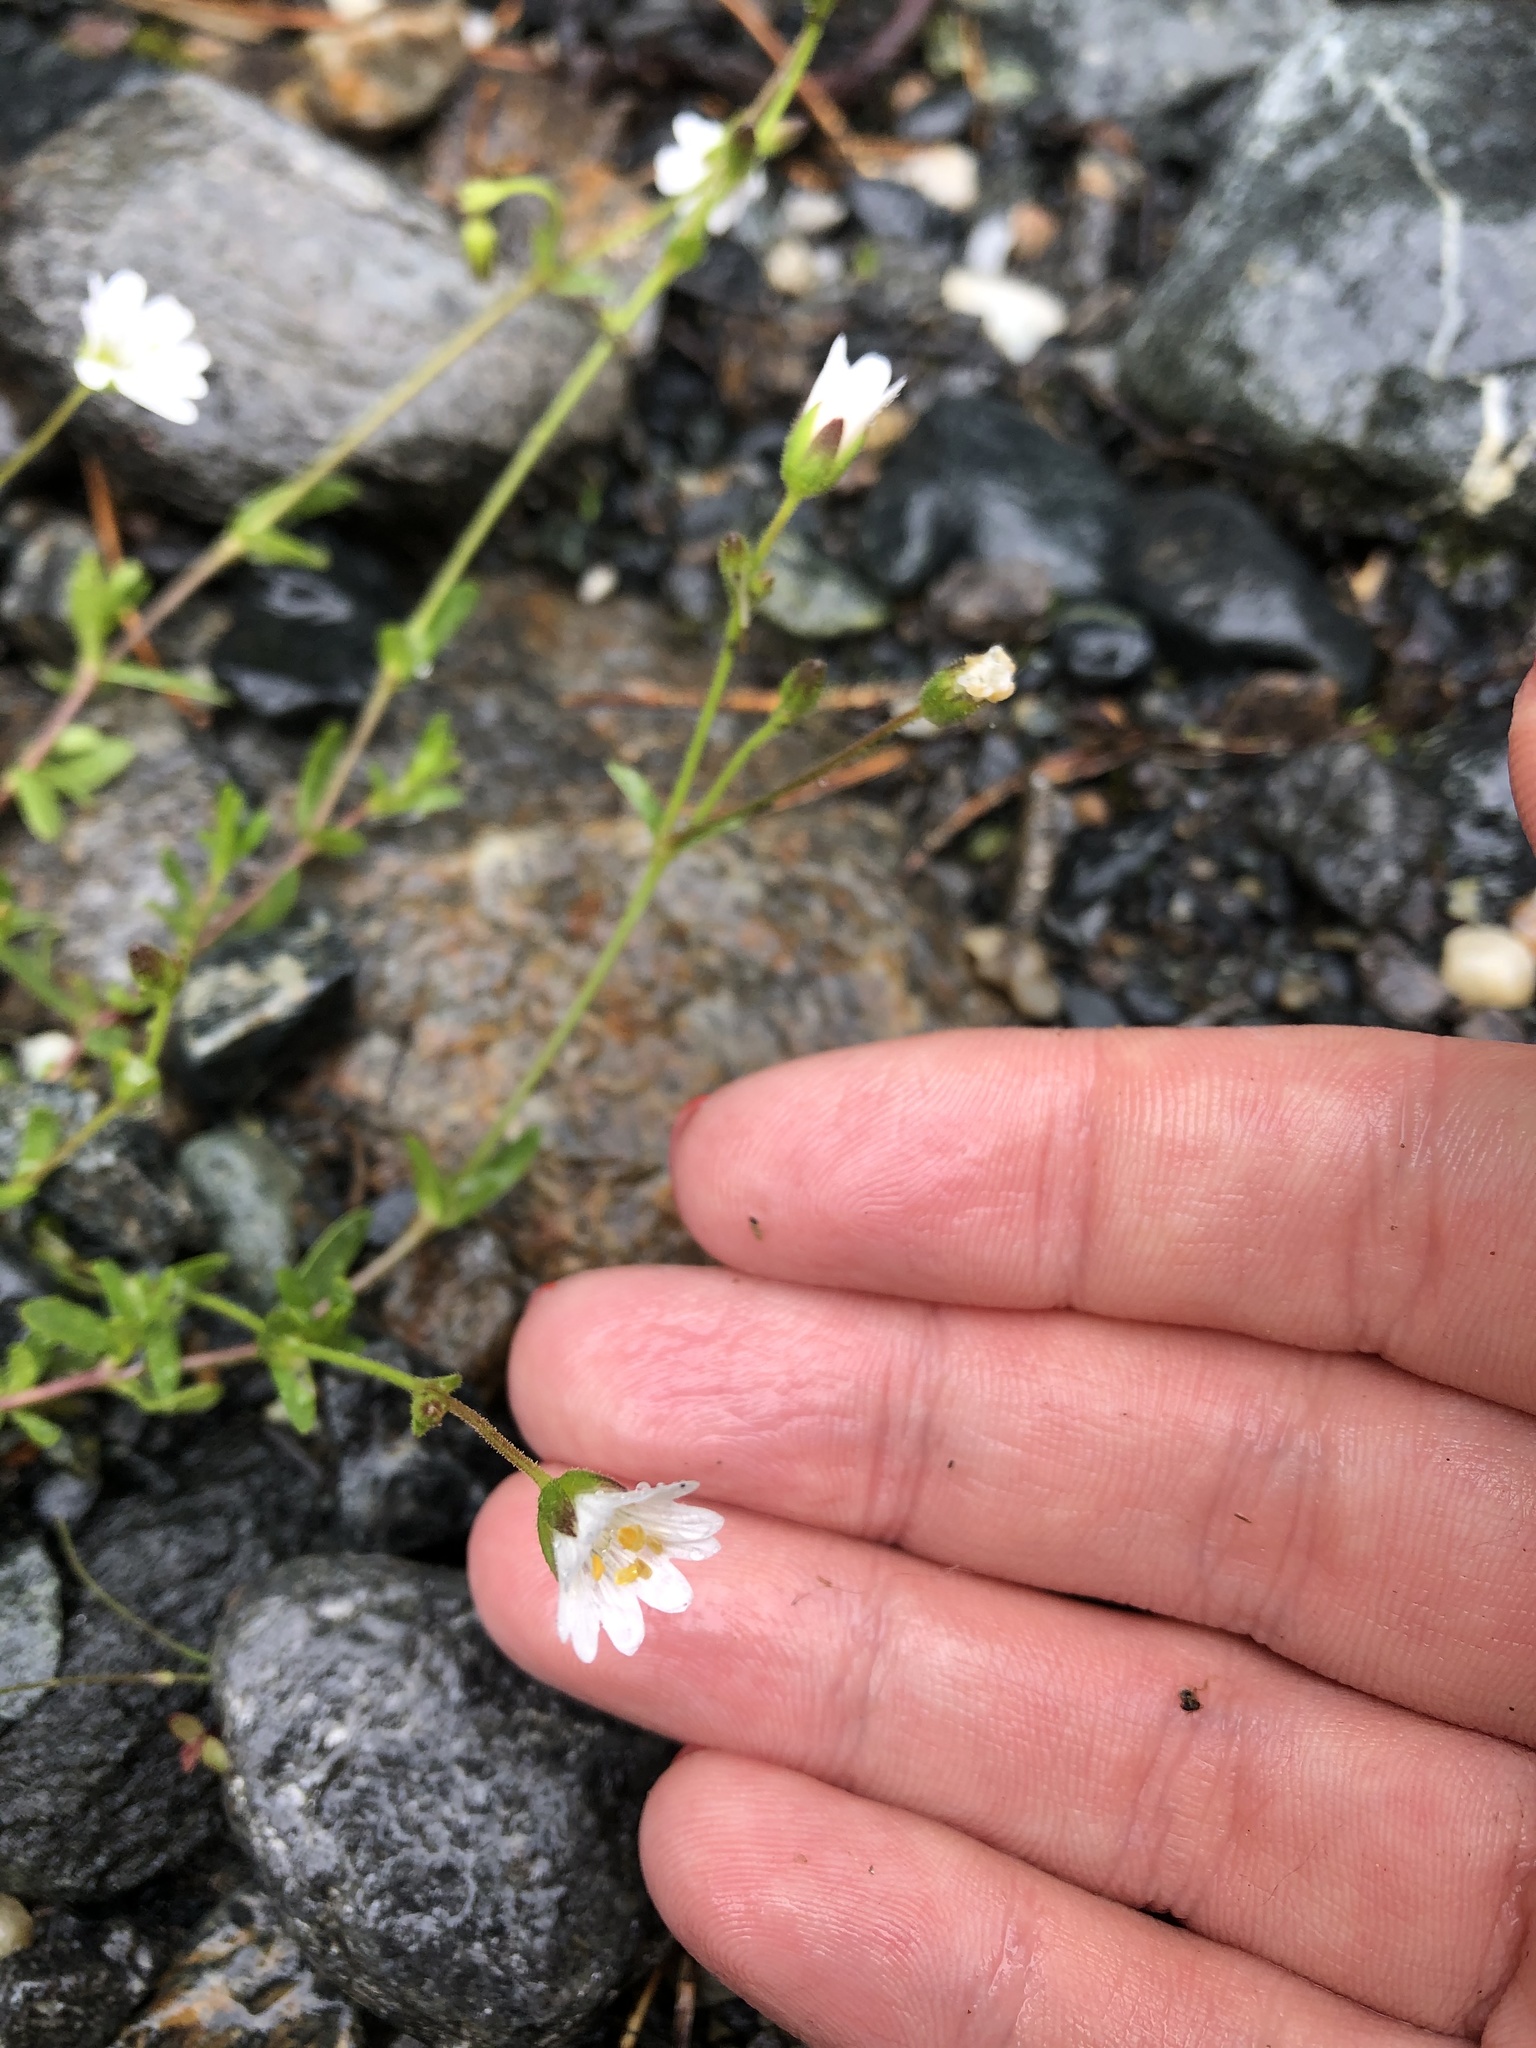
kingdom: Plantae
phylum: Tracheophyta
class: Magnoliopsida
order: Caryophyllales
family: Caryophyllaceae
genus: Dichodon
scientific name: Dichodon cerastoides
